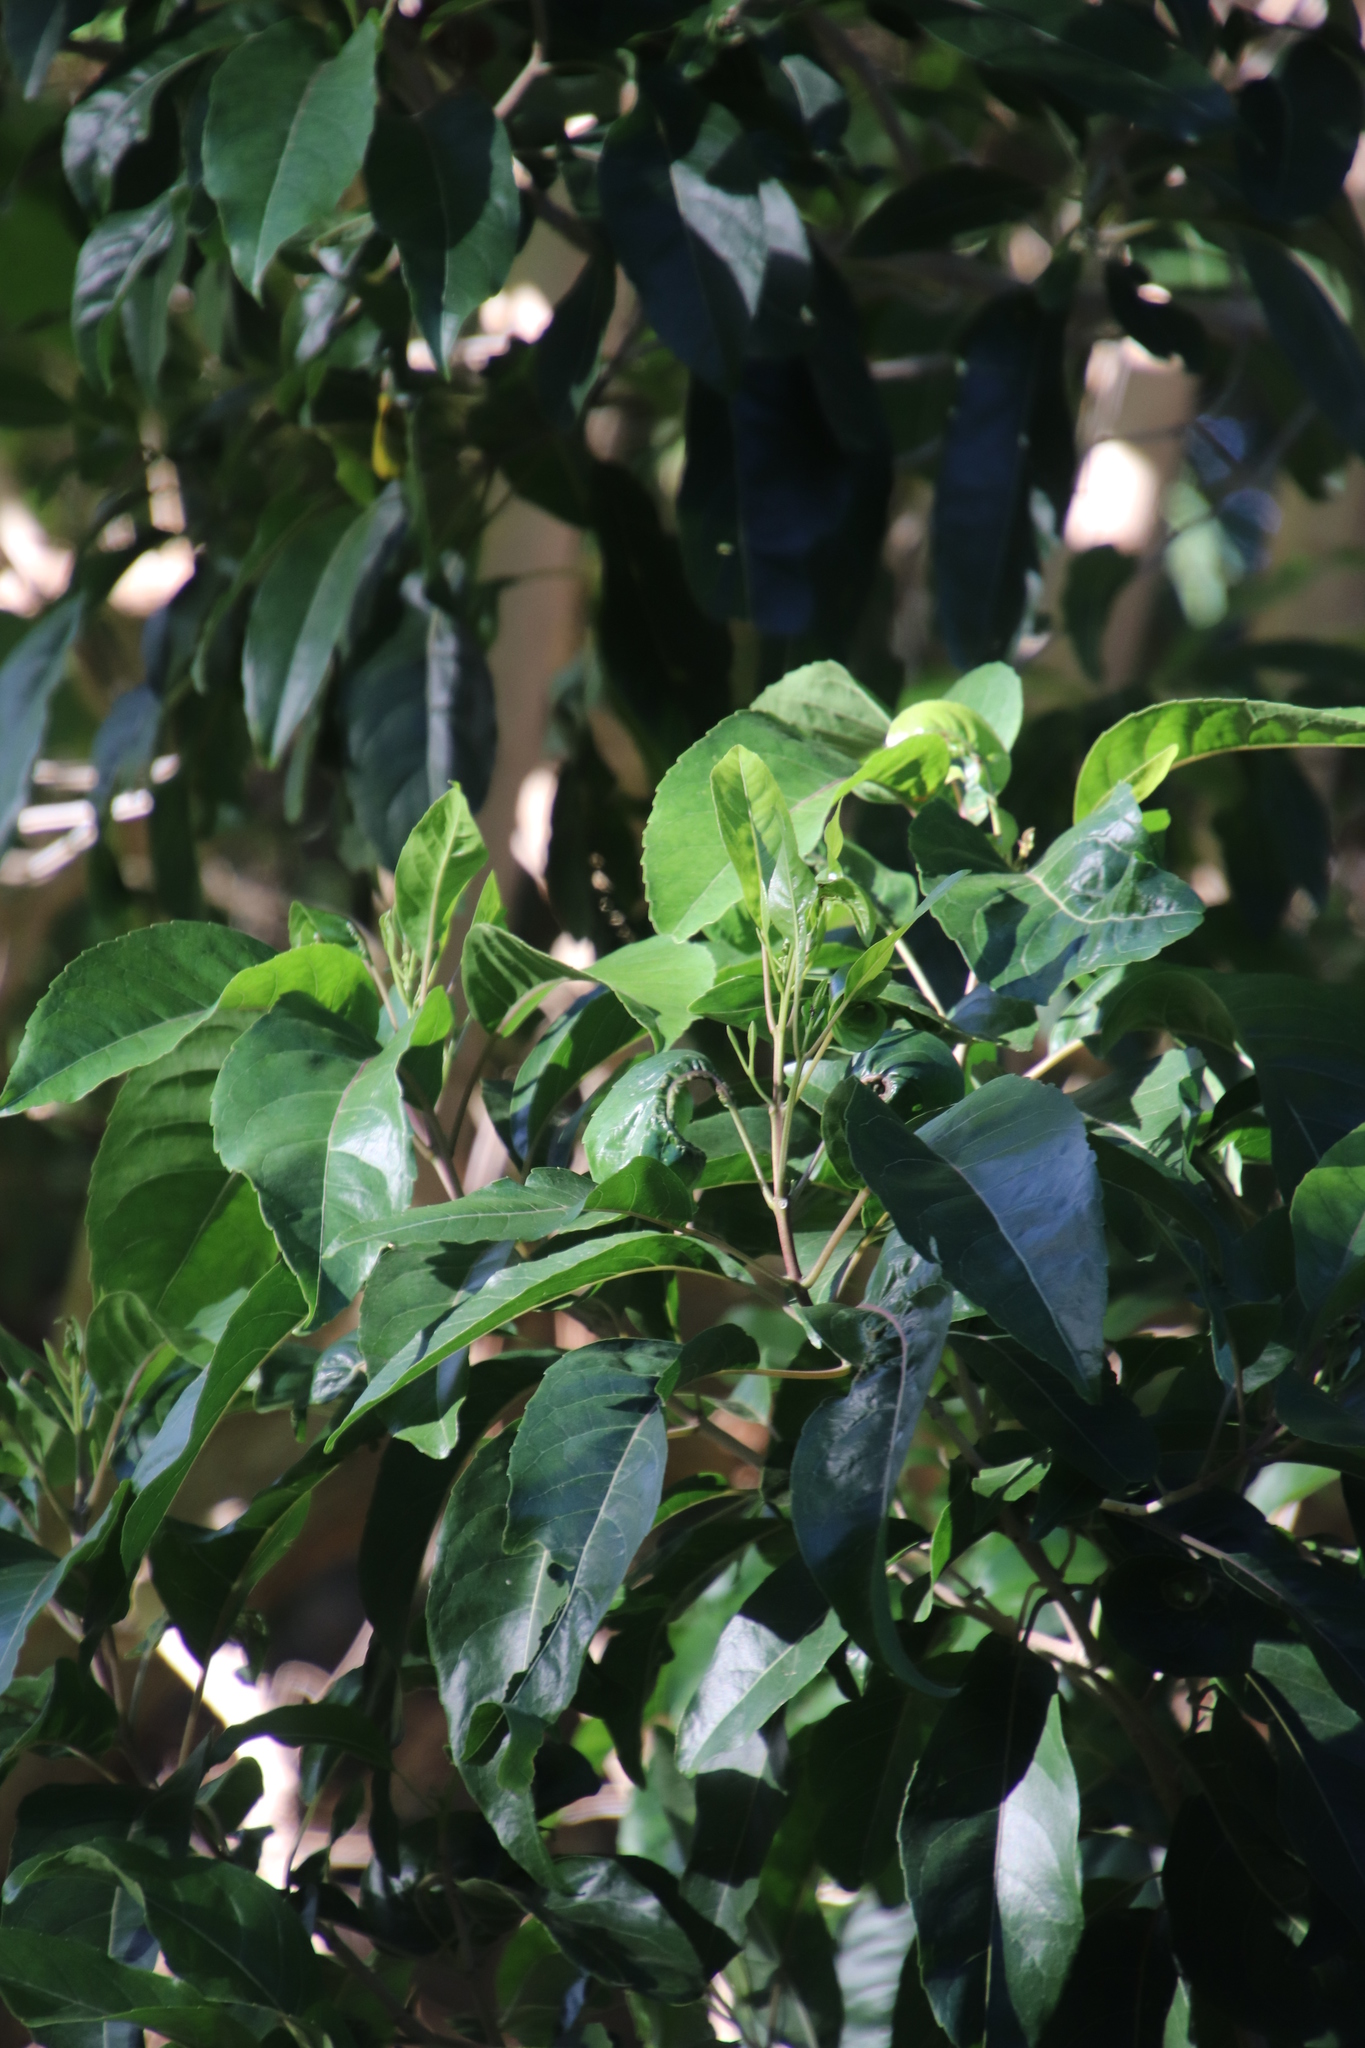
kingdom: Plantae
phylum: Tracheophyta
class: Magnoliopsida
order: Lamiales
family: Stilbaceae
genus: Nuxia
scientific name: Nuxia floribunda
